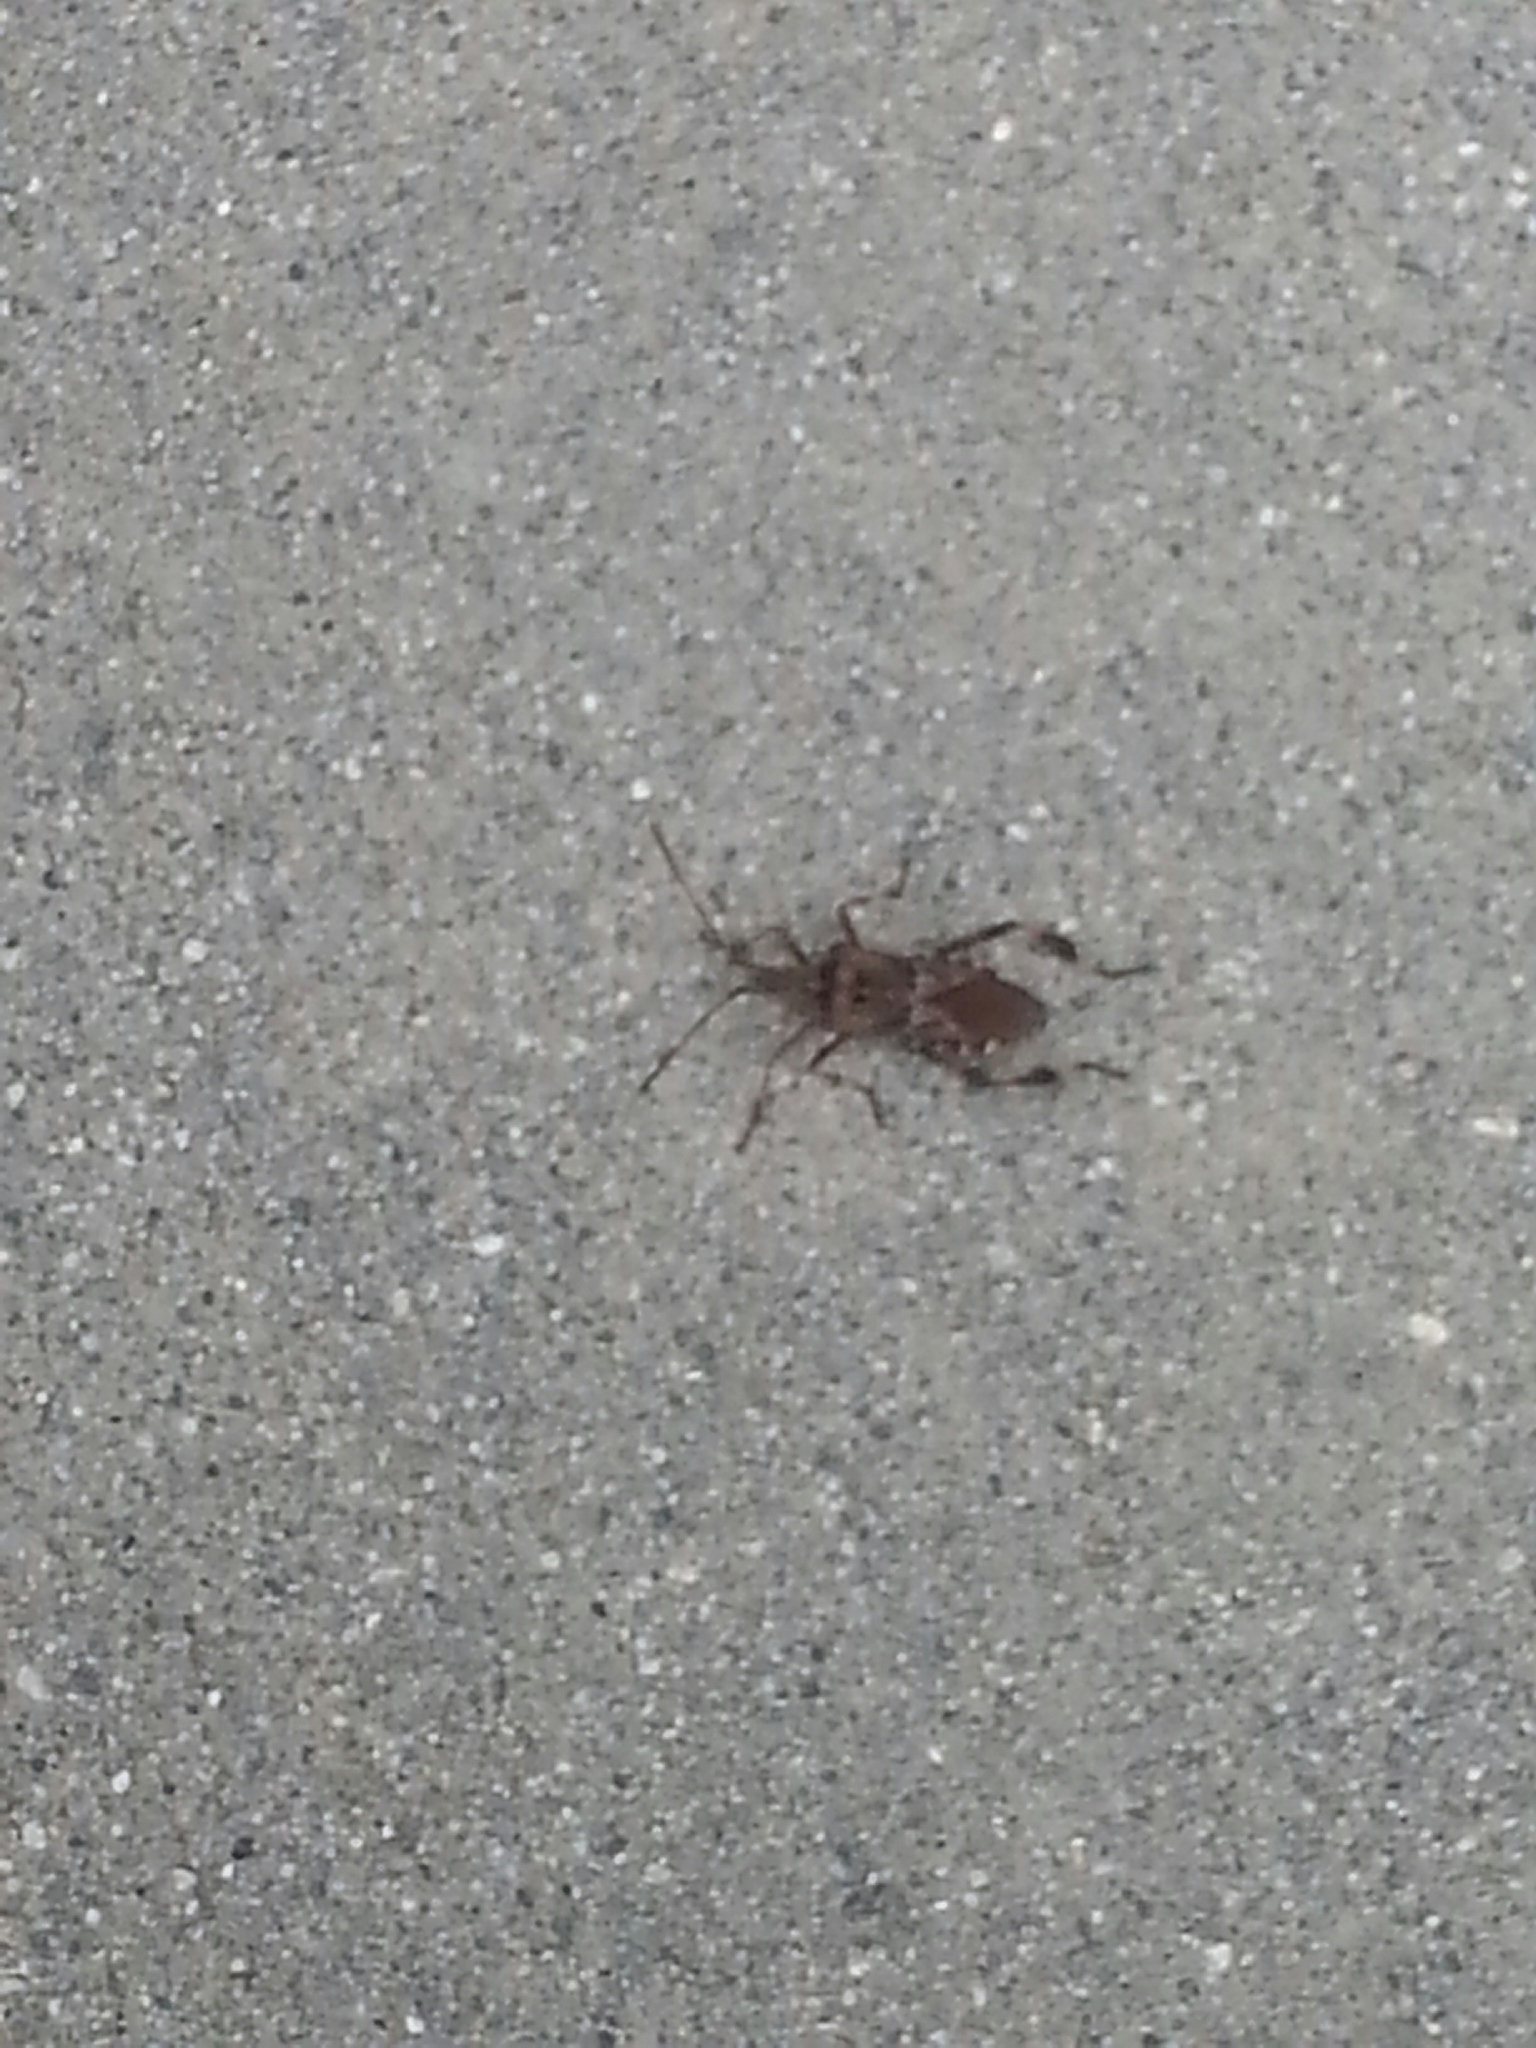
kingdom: Animalia
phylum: Arthropoda
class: Insecta
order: Hemiptera
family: Coreidae
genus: Leptoglossus
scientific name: Leptoglossus occidentalis
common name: Western conifer-seed bug
